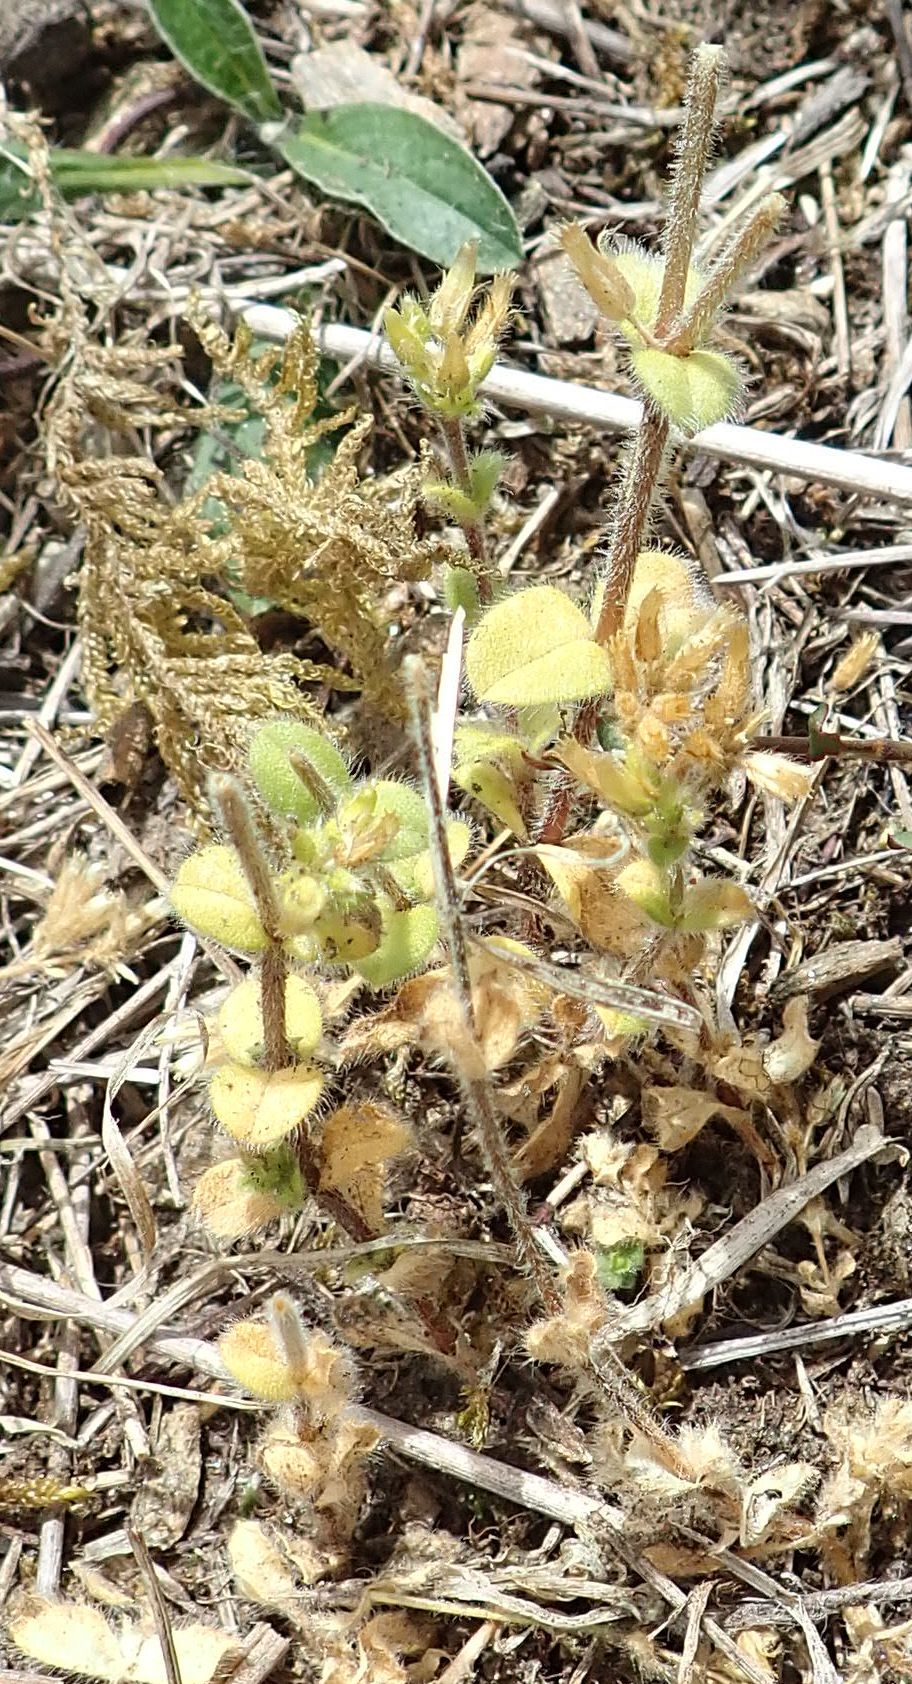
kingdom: Plantae
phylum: Tracheophyta
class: Magnoliopsida
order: Caryophyllales
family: Caryophyllaceae
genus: Cerastium
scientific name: Cerastium glomeratum
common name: Sticky chickweed
